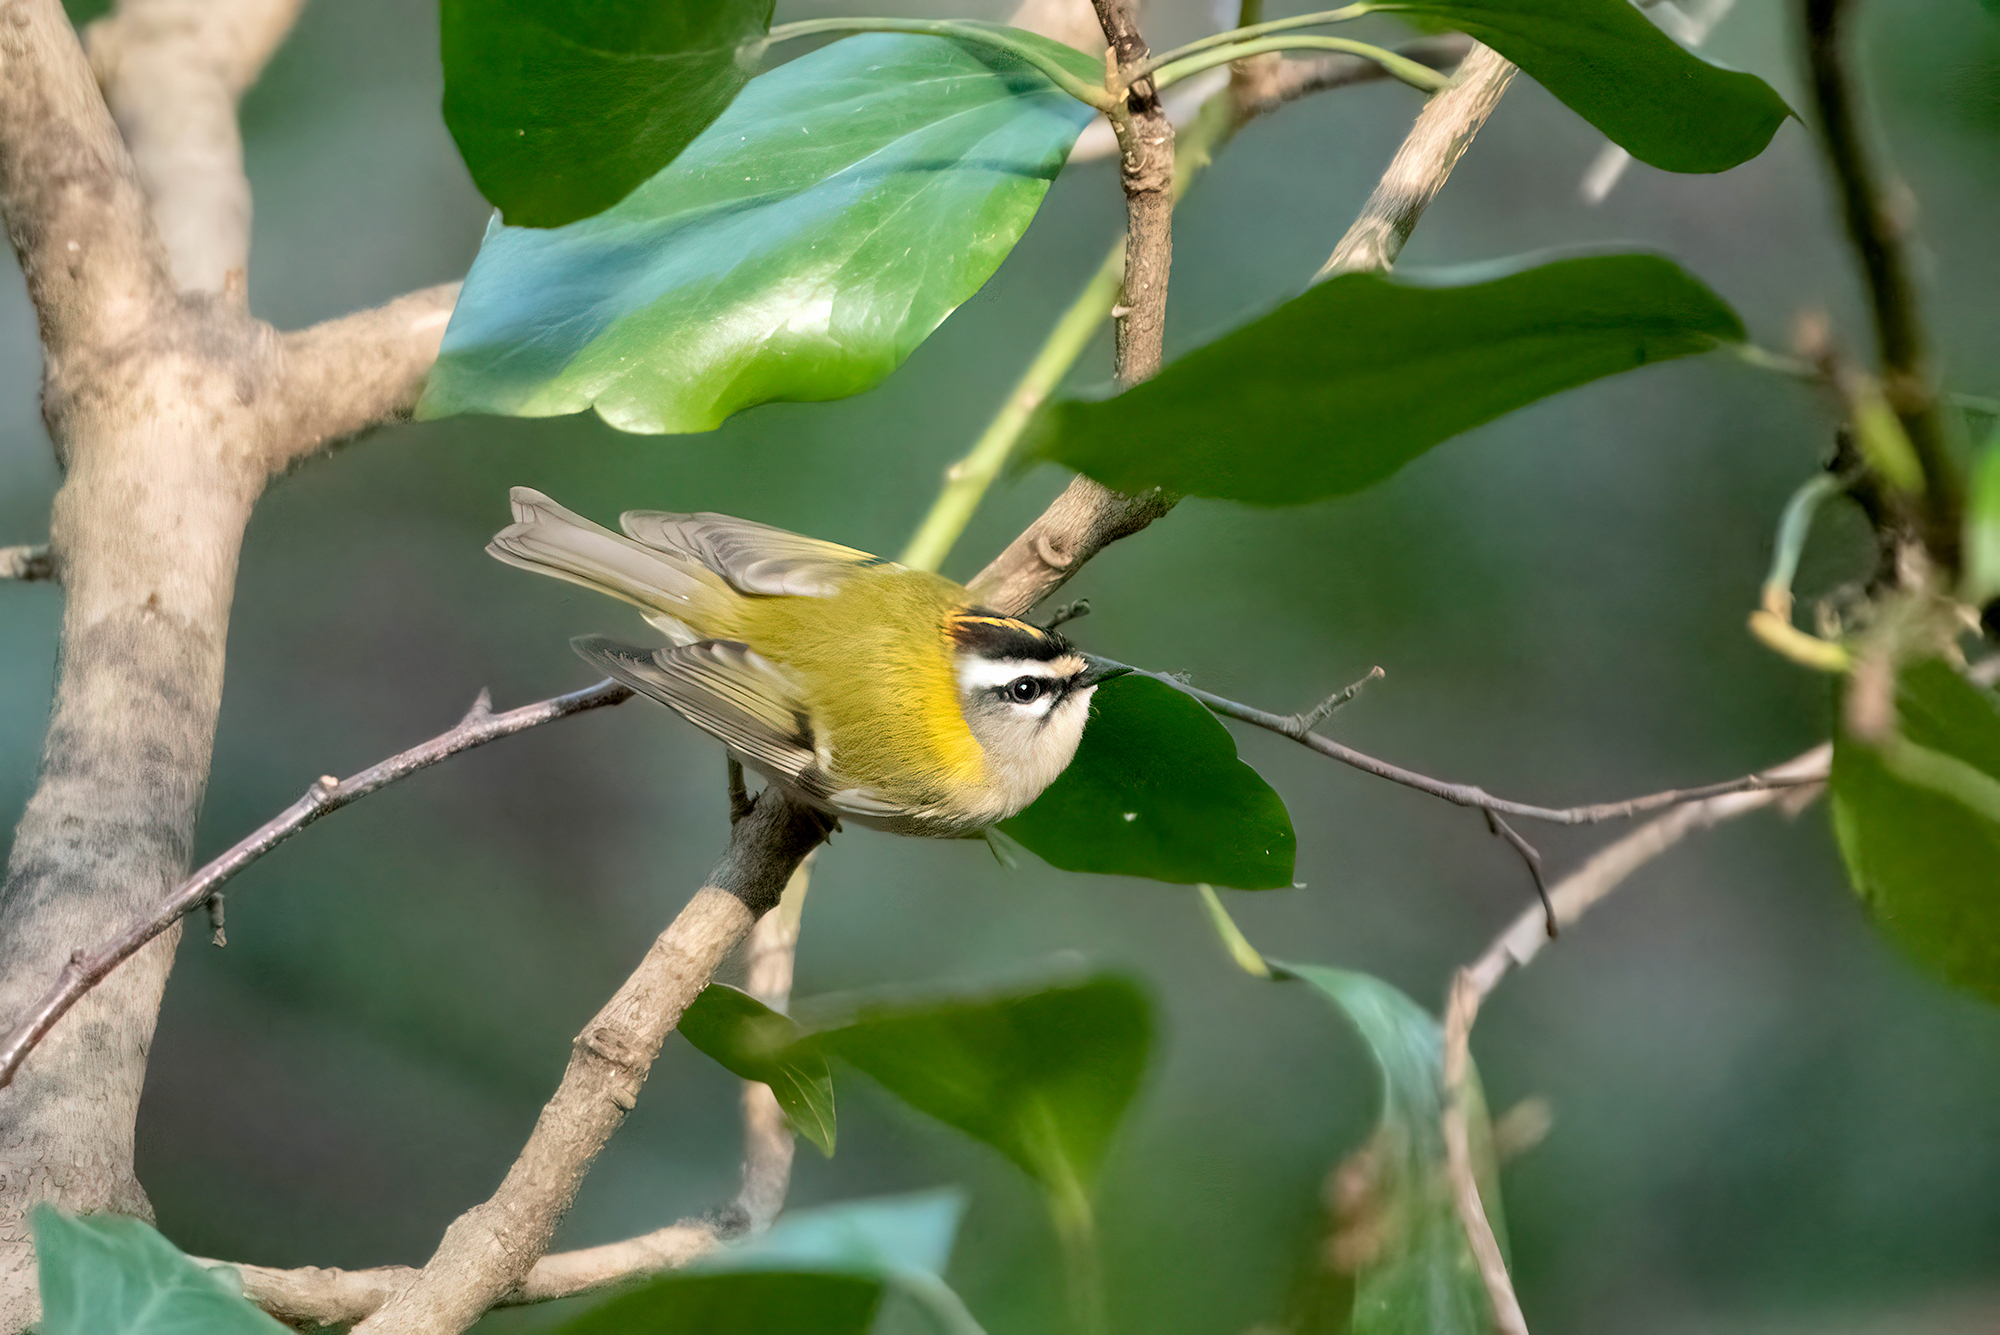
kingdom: Animalia
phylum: Chordata
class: Aves
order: Passeriformes
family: Regulidae
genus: Regulus
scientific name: Regulus ignicapilla
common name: Firecrest
